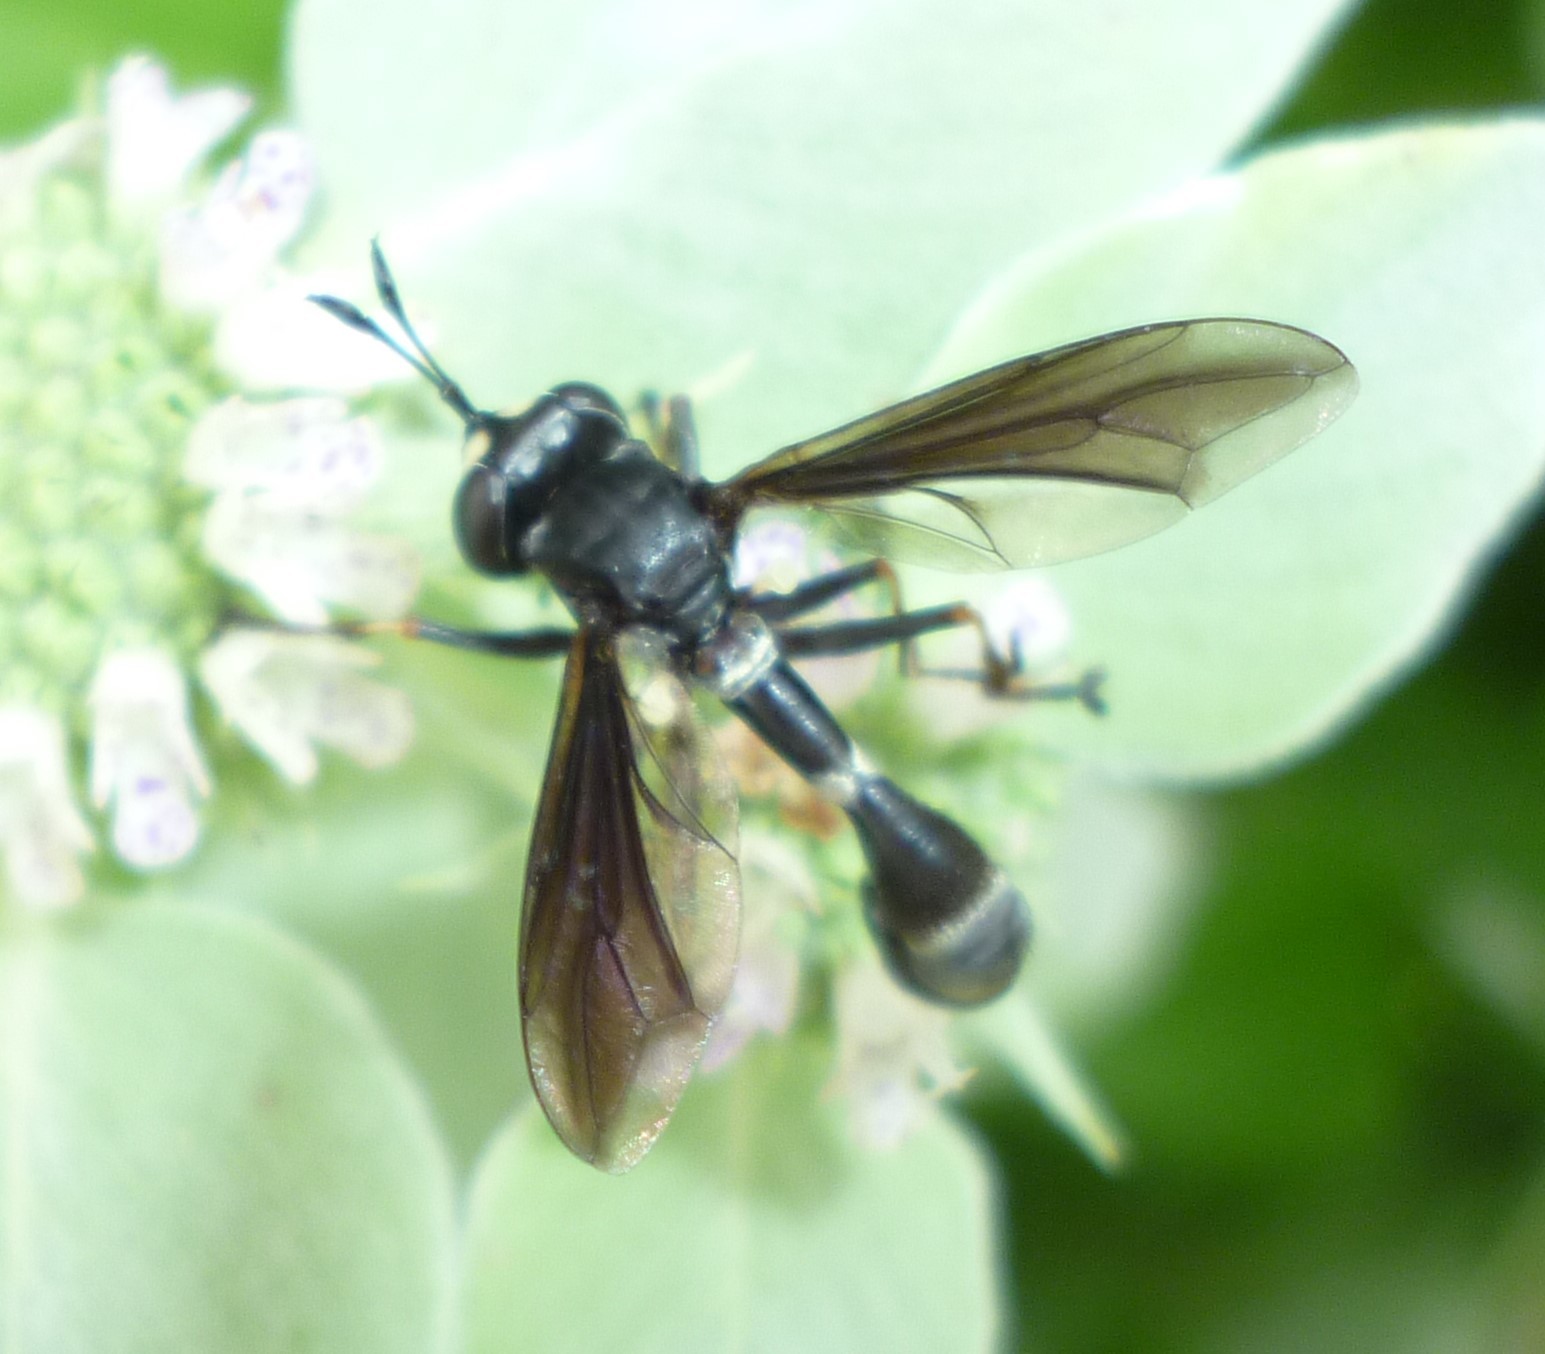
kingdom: Animalia
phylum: Arthropoda
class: Insecta
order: Diptera
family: Conopidae
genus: Physocephala
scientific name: Physocephala tibialis
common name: Common eastern physocephala
